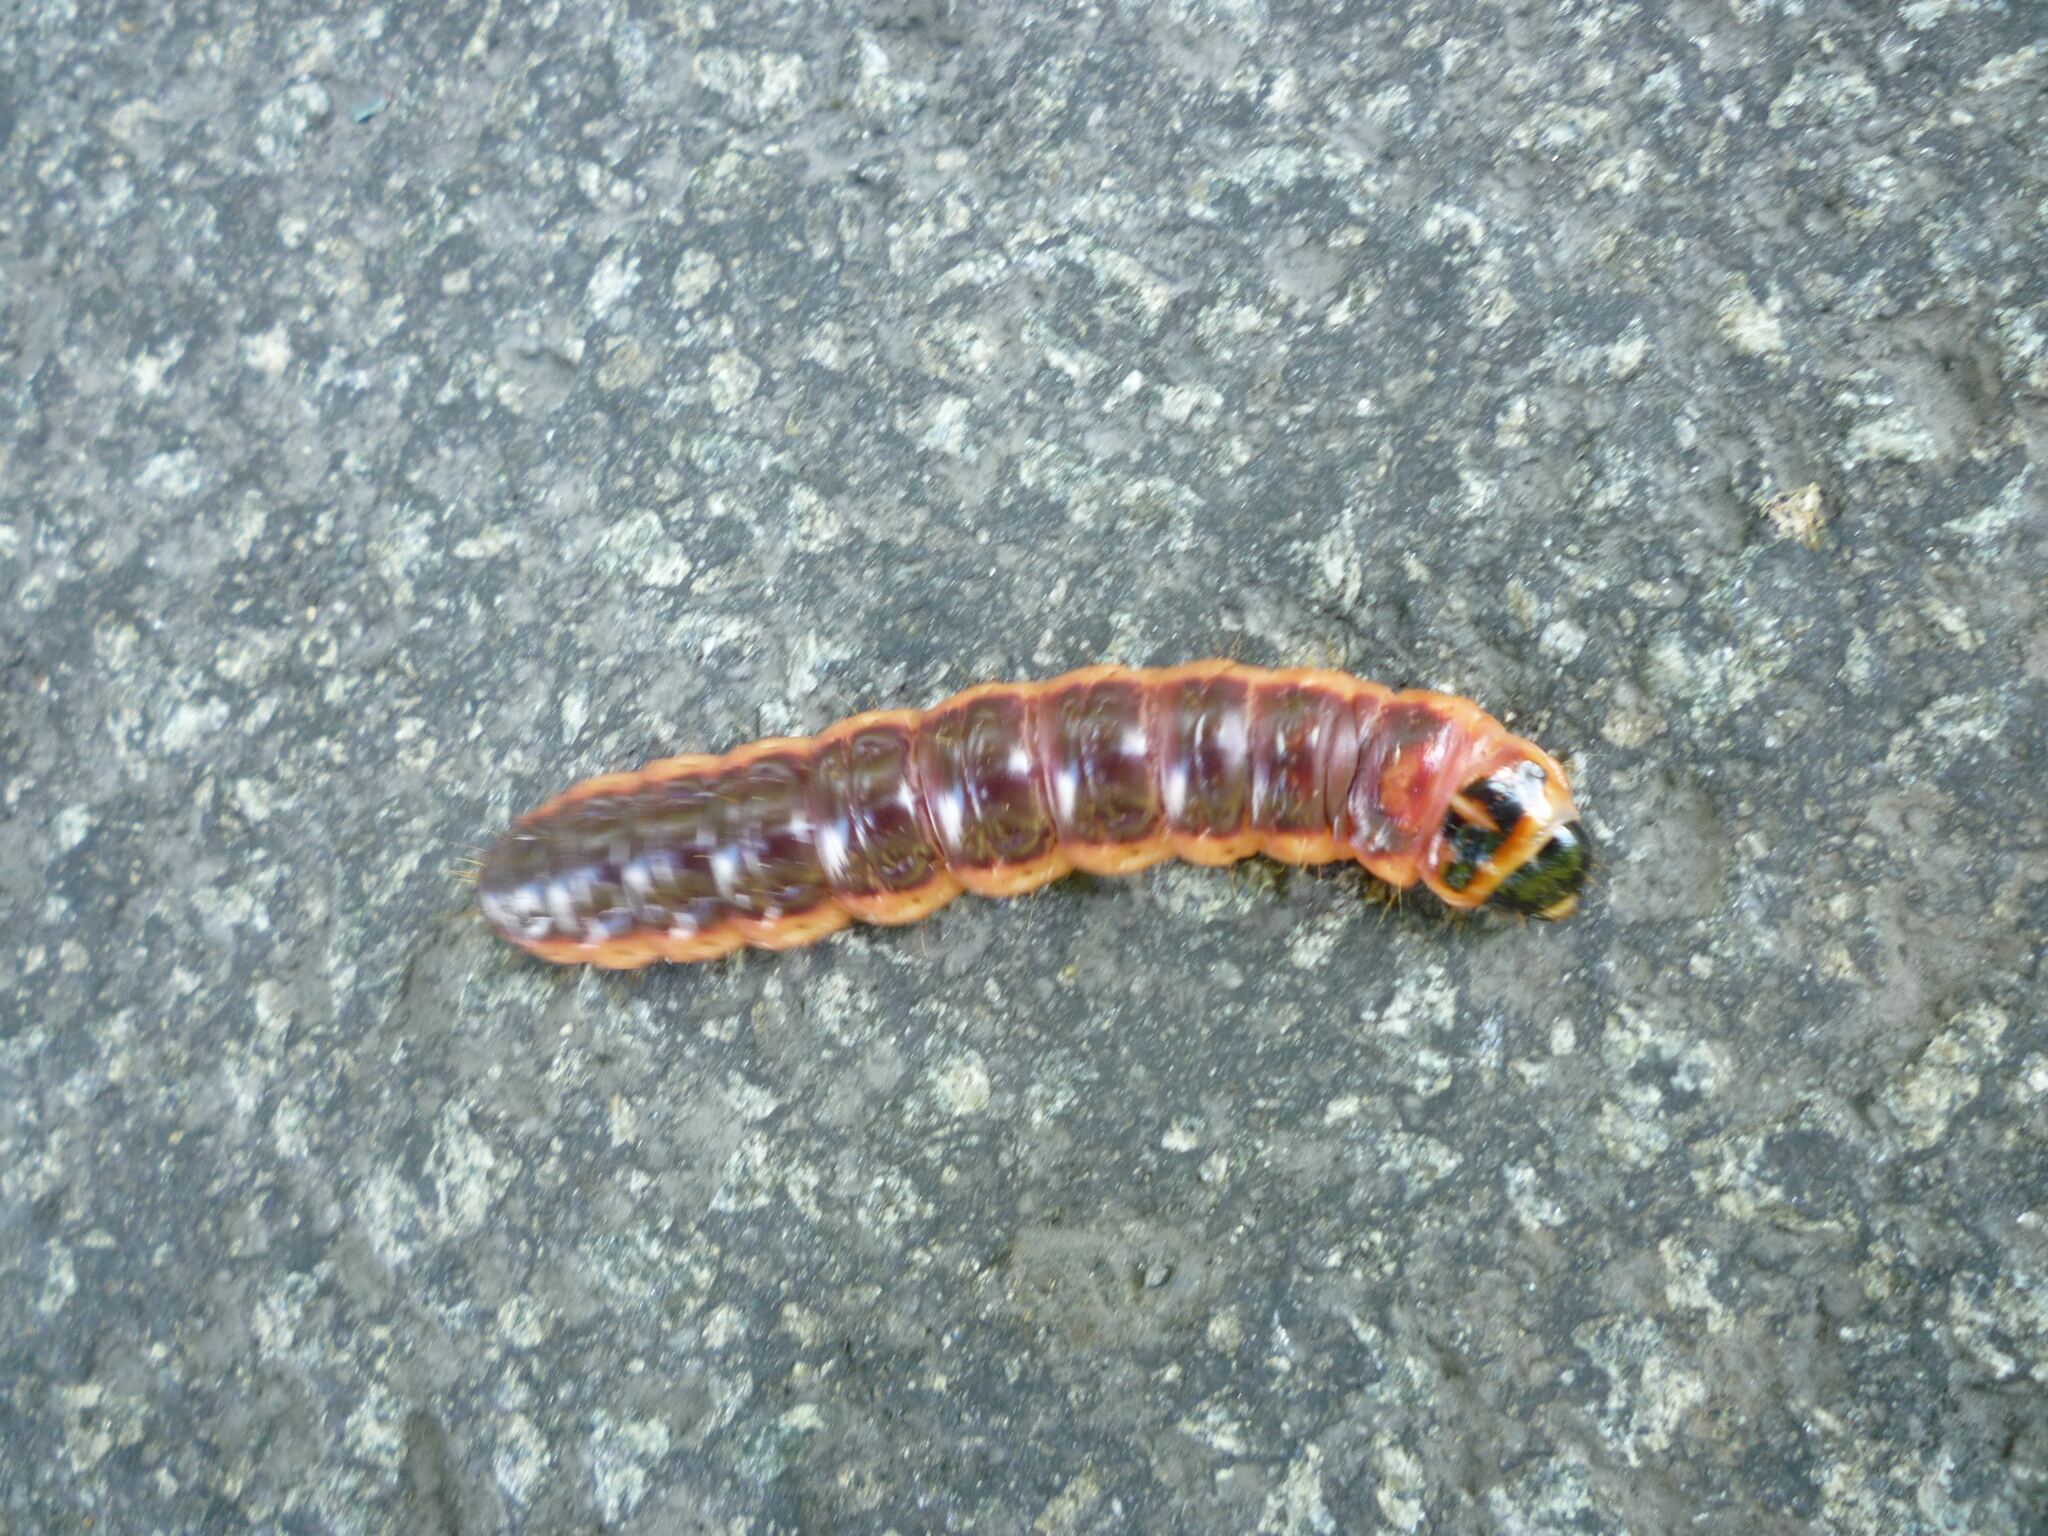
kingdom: Animalia
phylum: Arthropoda
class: Insecta
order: Lepidoptera
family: Cossidae
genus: Cossus
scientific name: Cossus cossus
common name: Goat moth
